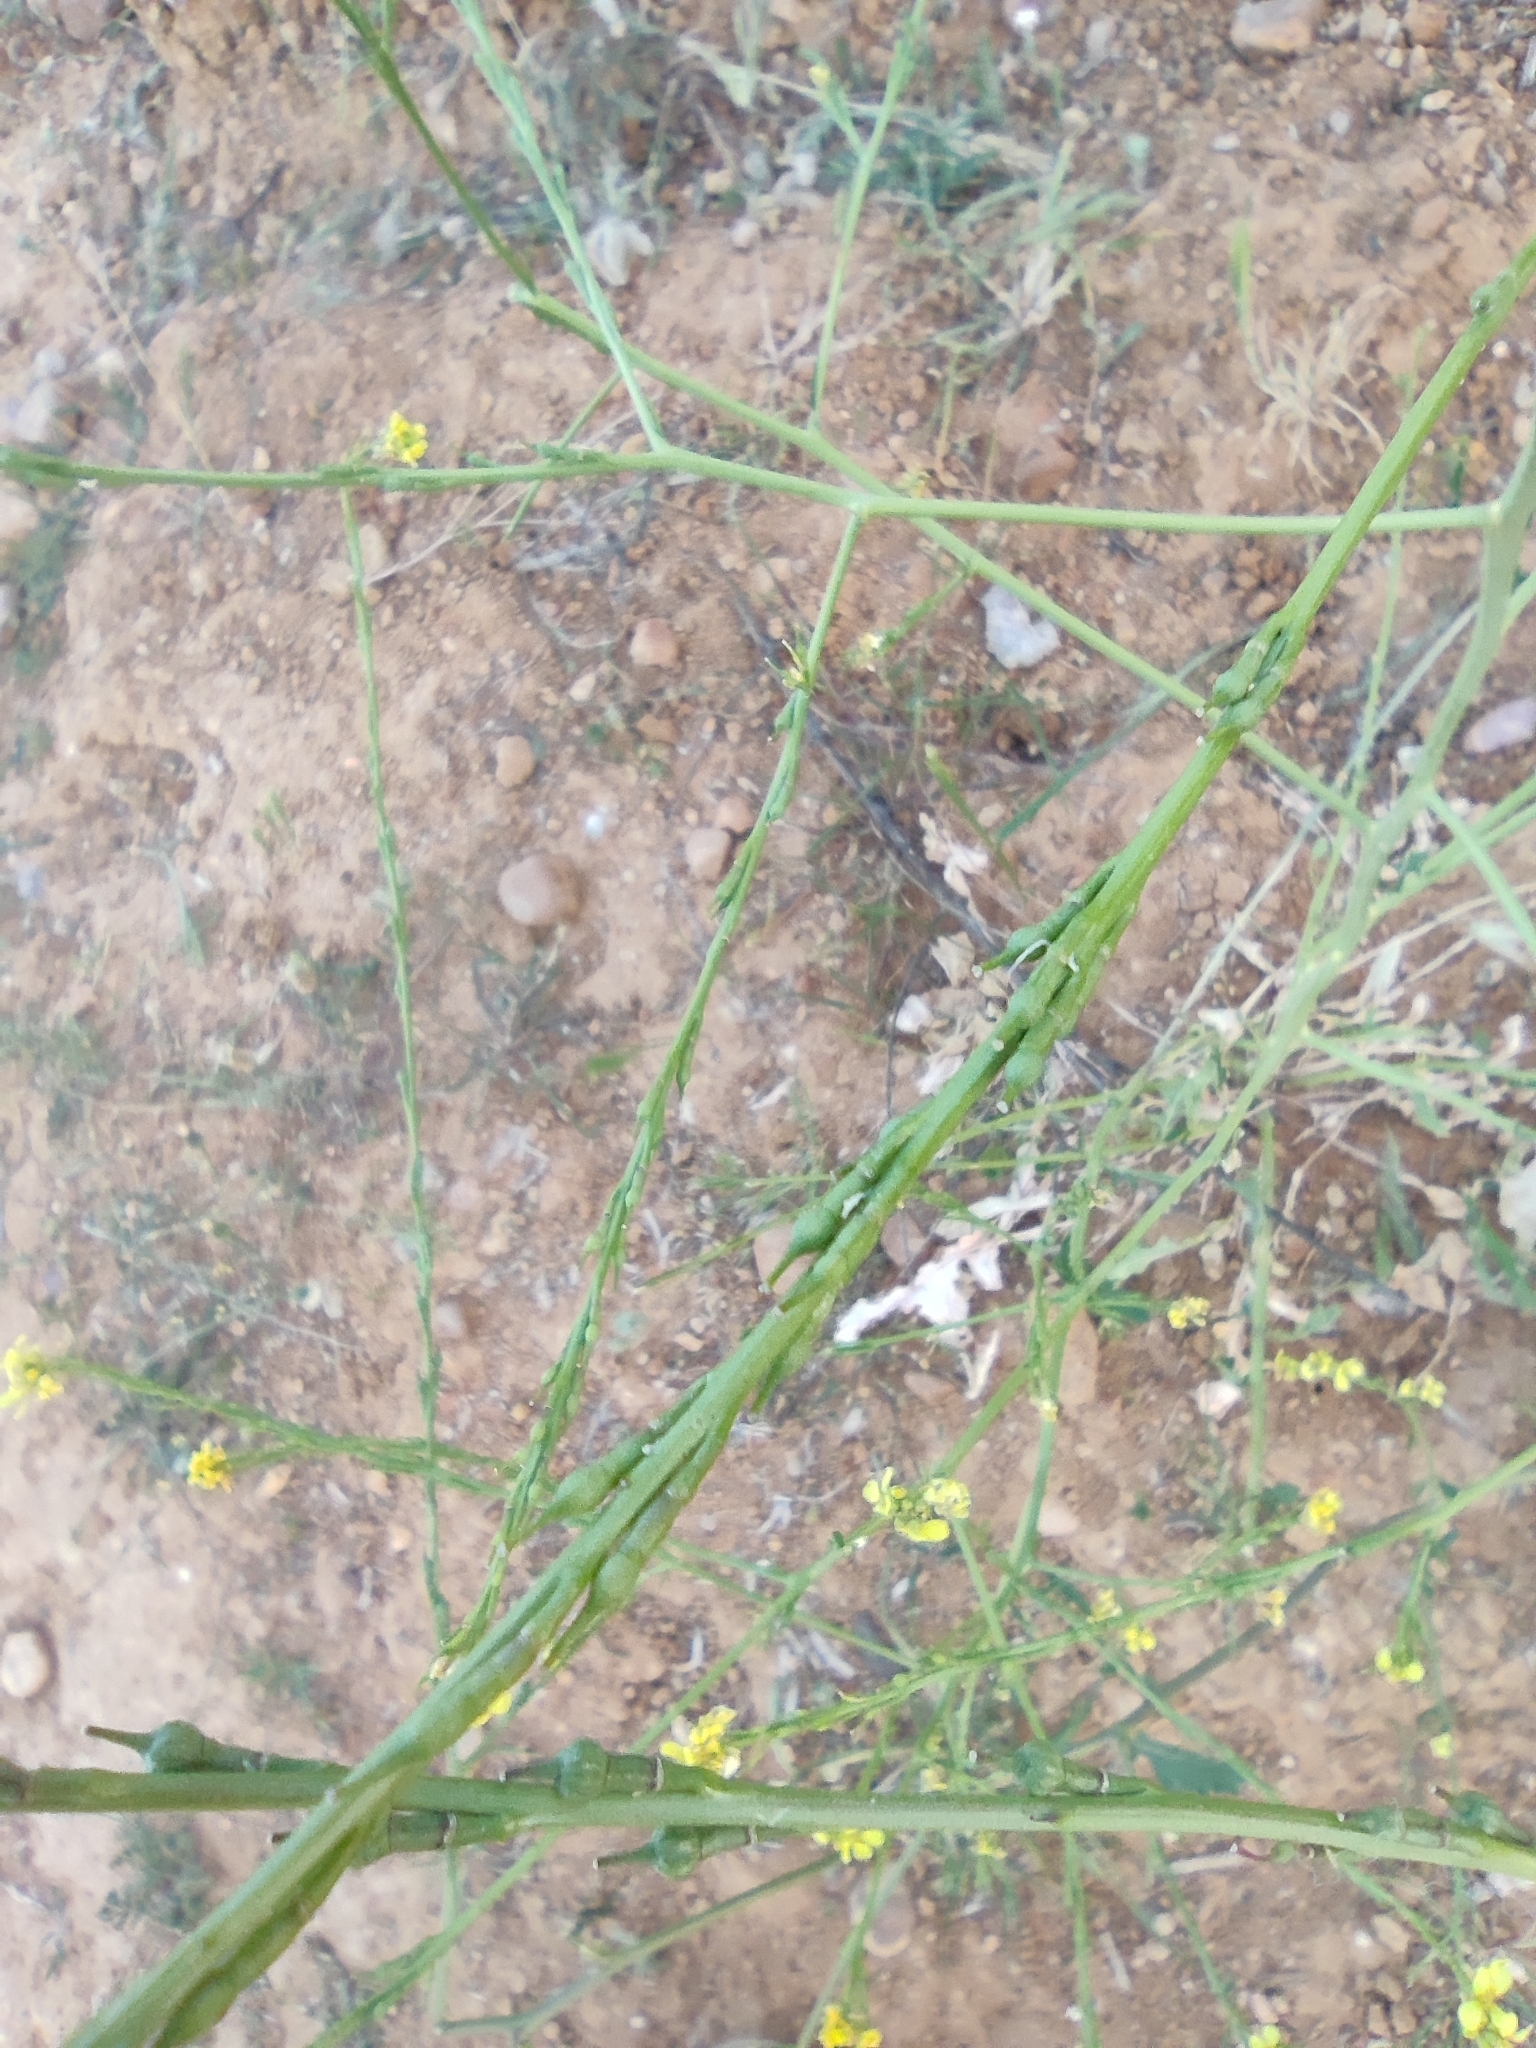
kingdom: Plantae
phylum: Tracheophyta
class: Magnoliopsida
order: Brassicales
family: Brassicaceae
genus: Rapistrum
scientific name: Rapistrum rugosum
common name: Annual bastardcabbage
